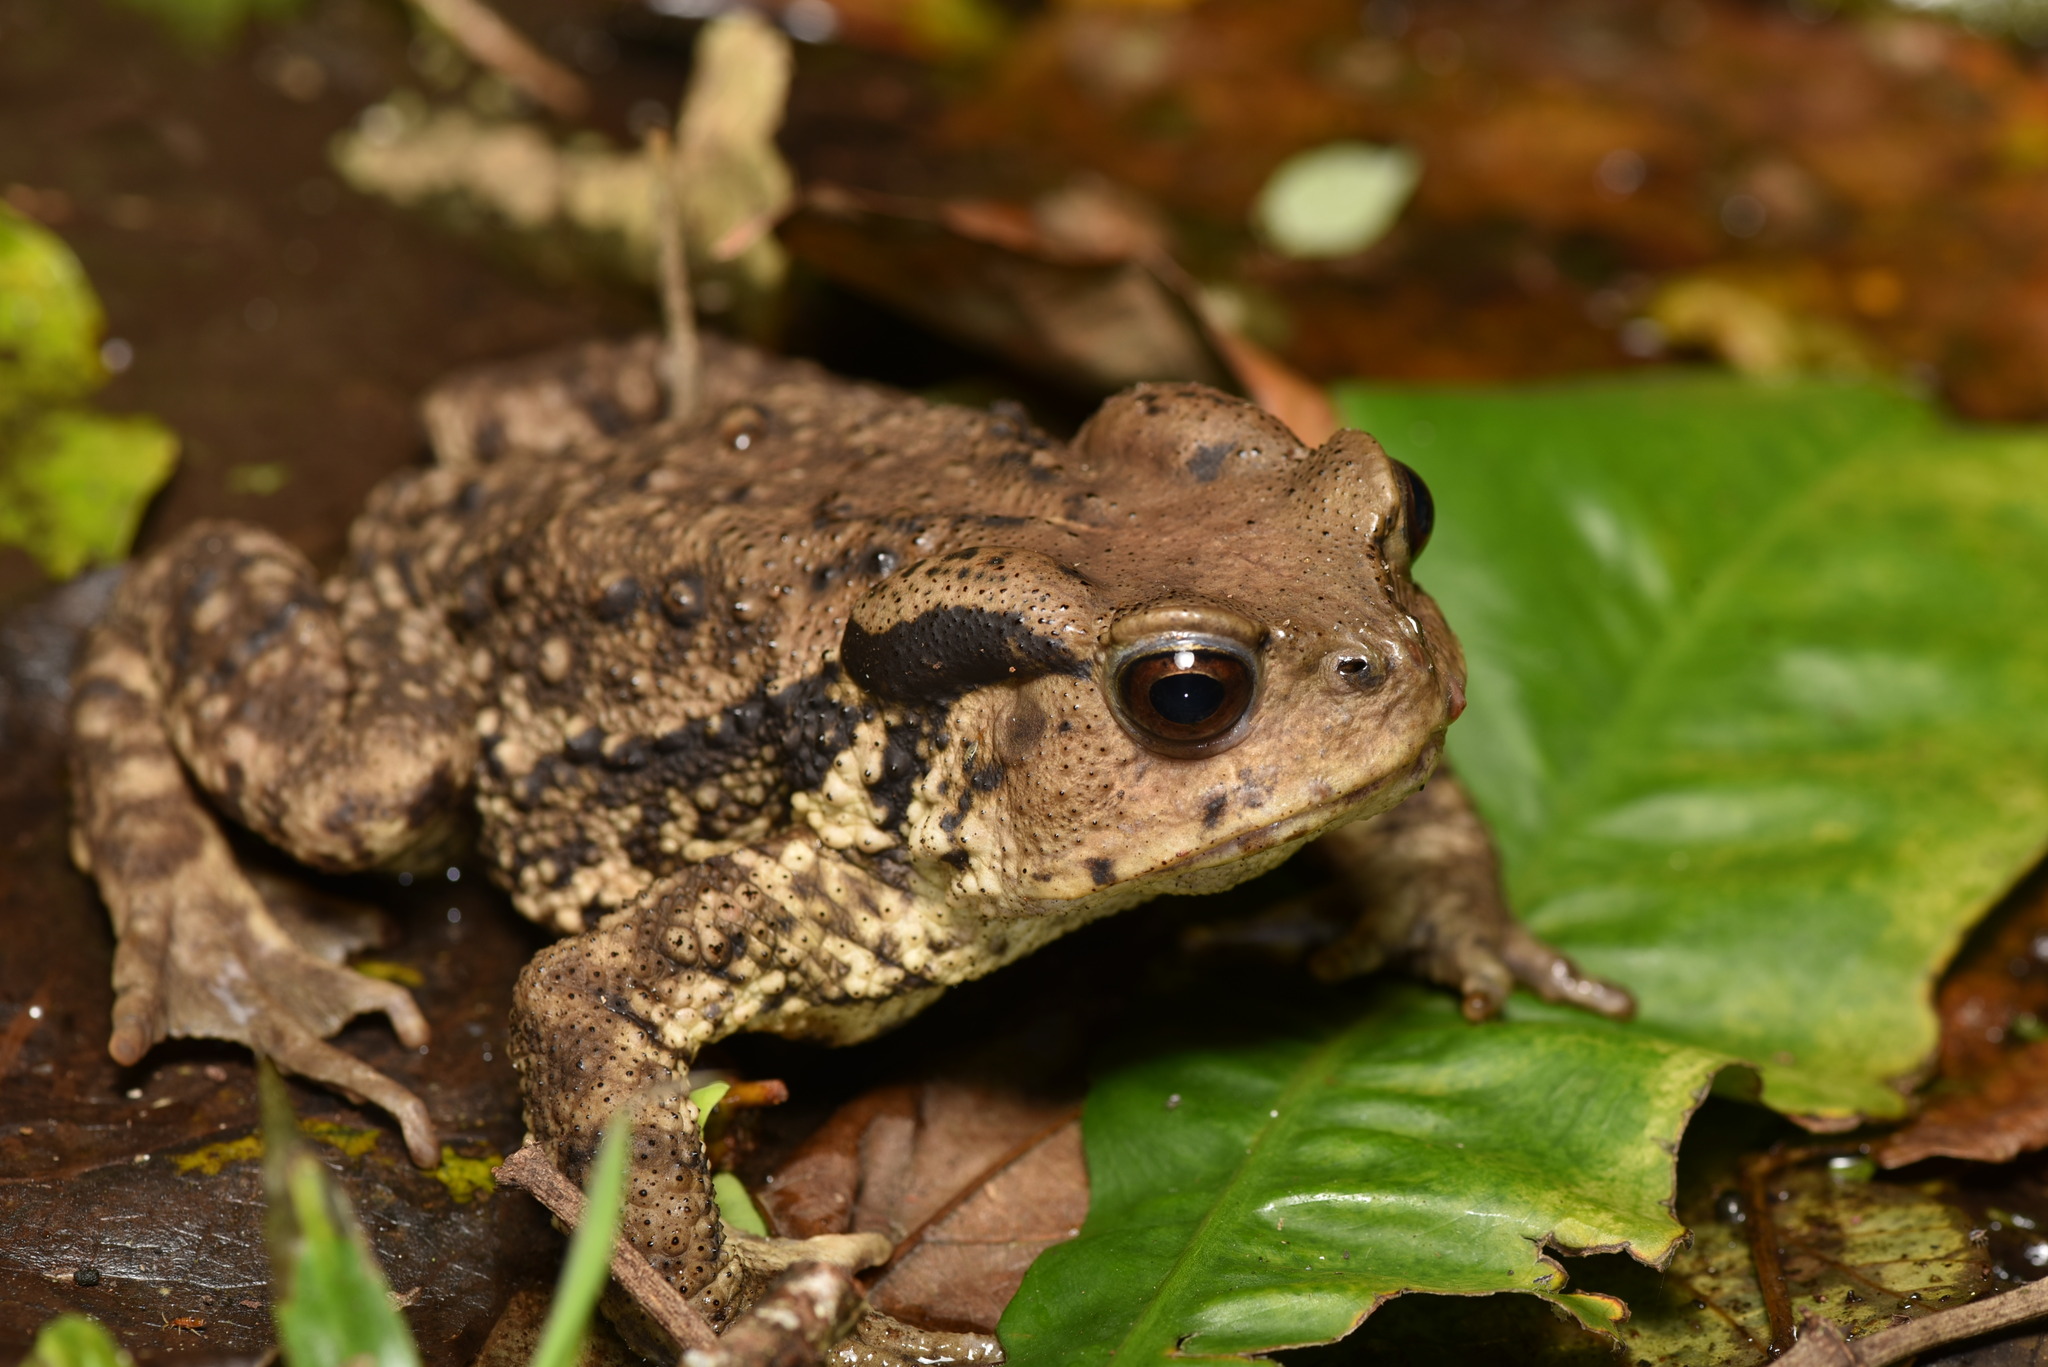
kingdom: Animalia
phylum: Chordata
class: Amphibia
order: Anura
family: Bufonidae
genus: Bufo
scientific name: Bufo bankorensis
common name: Bankor toad
